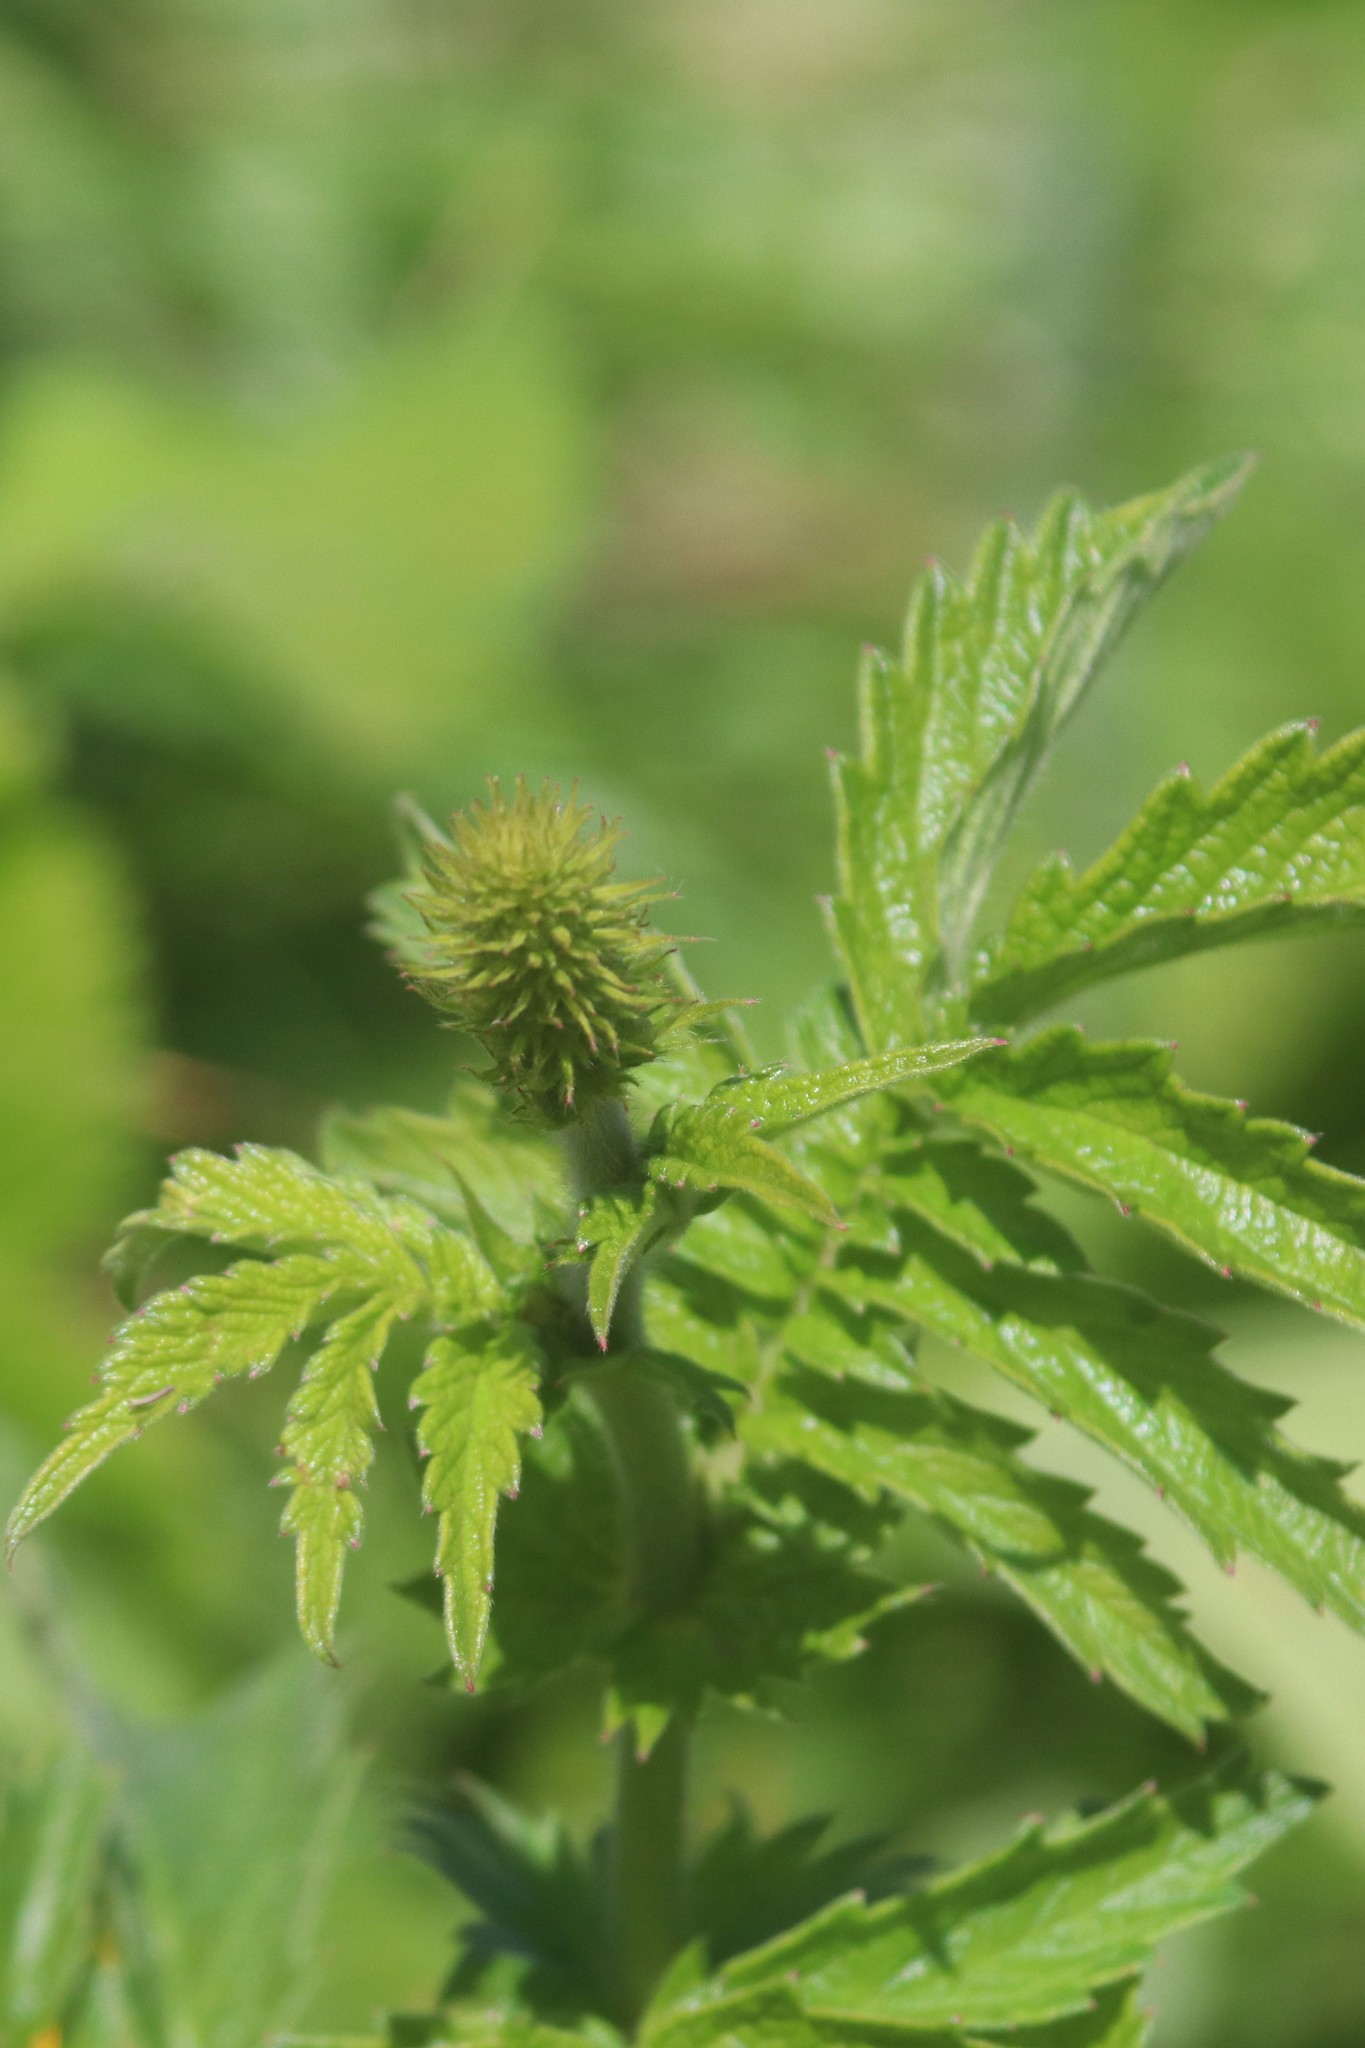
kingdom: Plantae
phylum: Tracheophyta
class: Magnoliopsida
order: Rosales
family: Rosaceae
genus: Agrimonia
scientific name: Agrimonia eupatoria
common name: Agrimony
